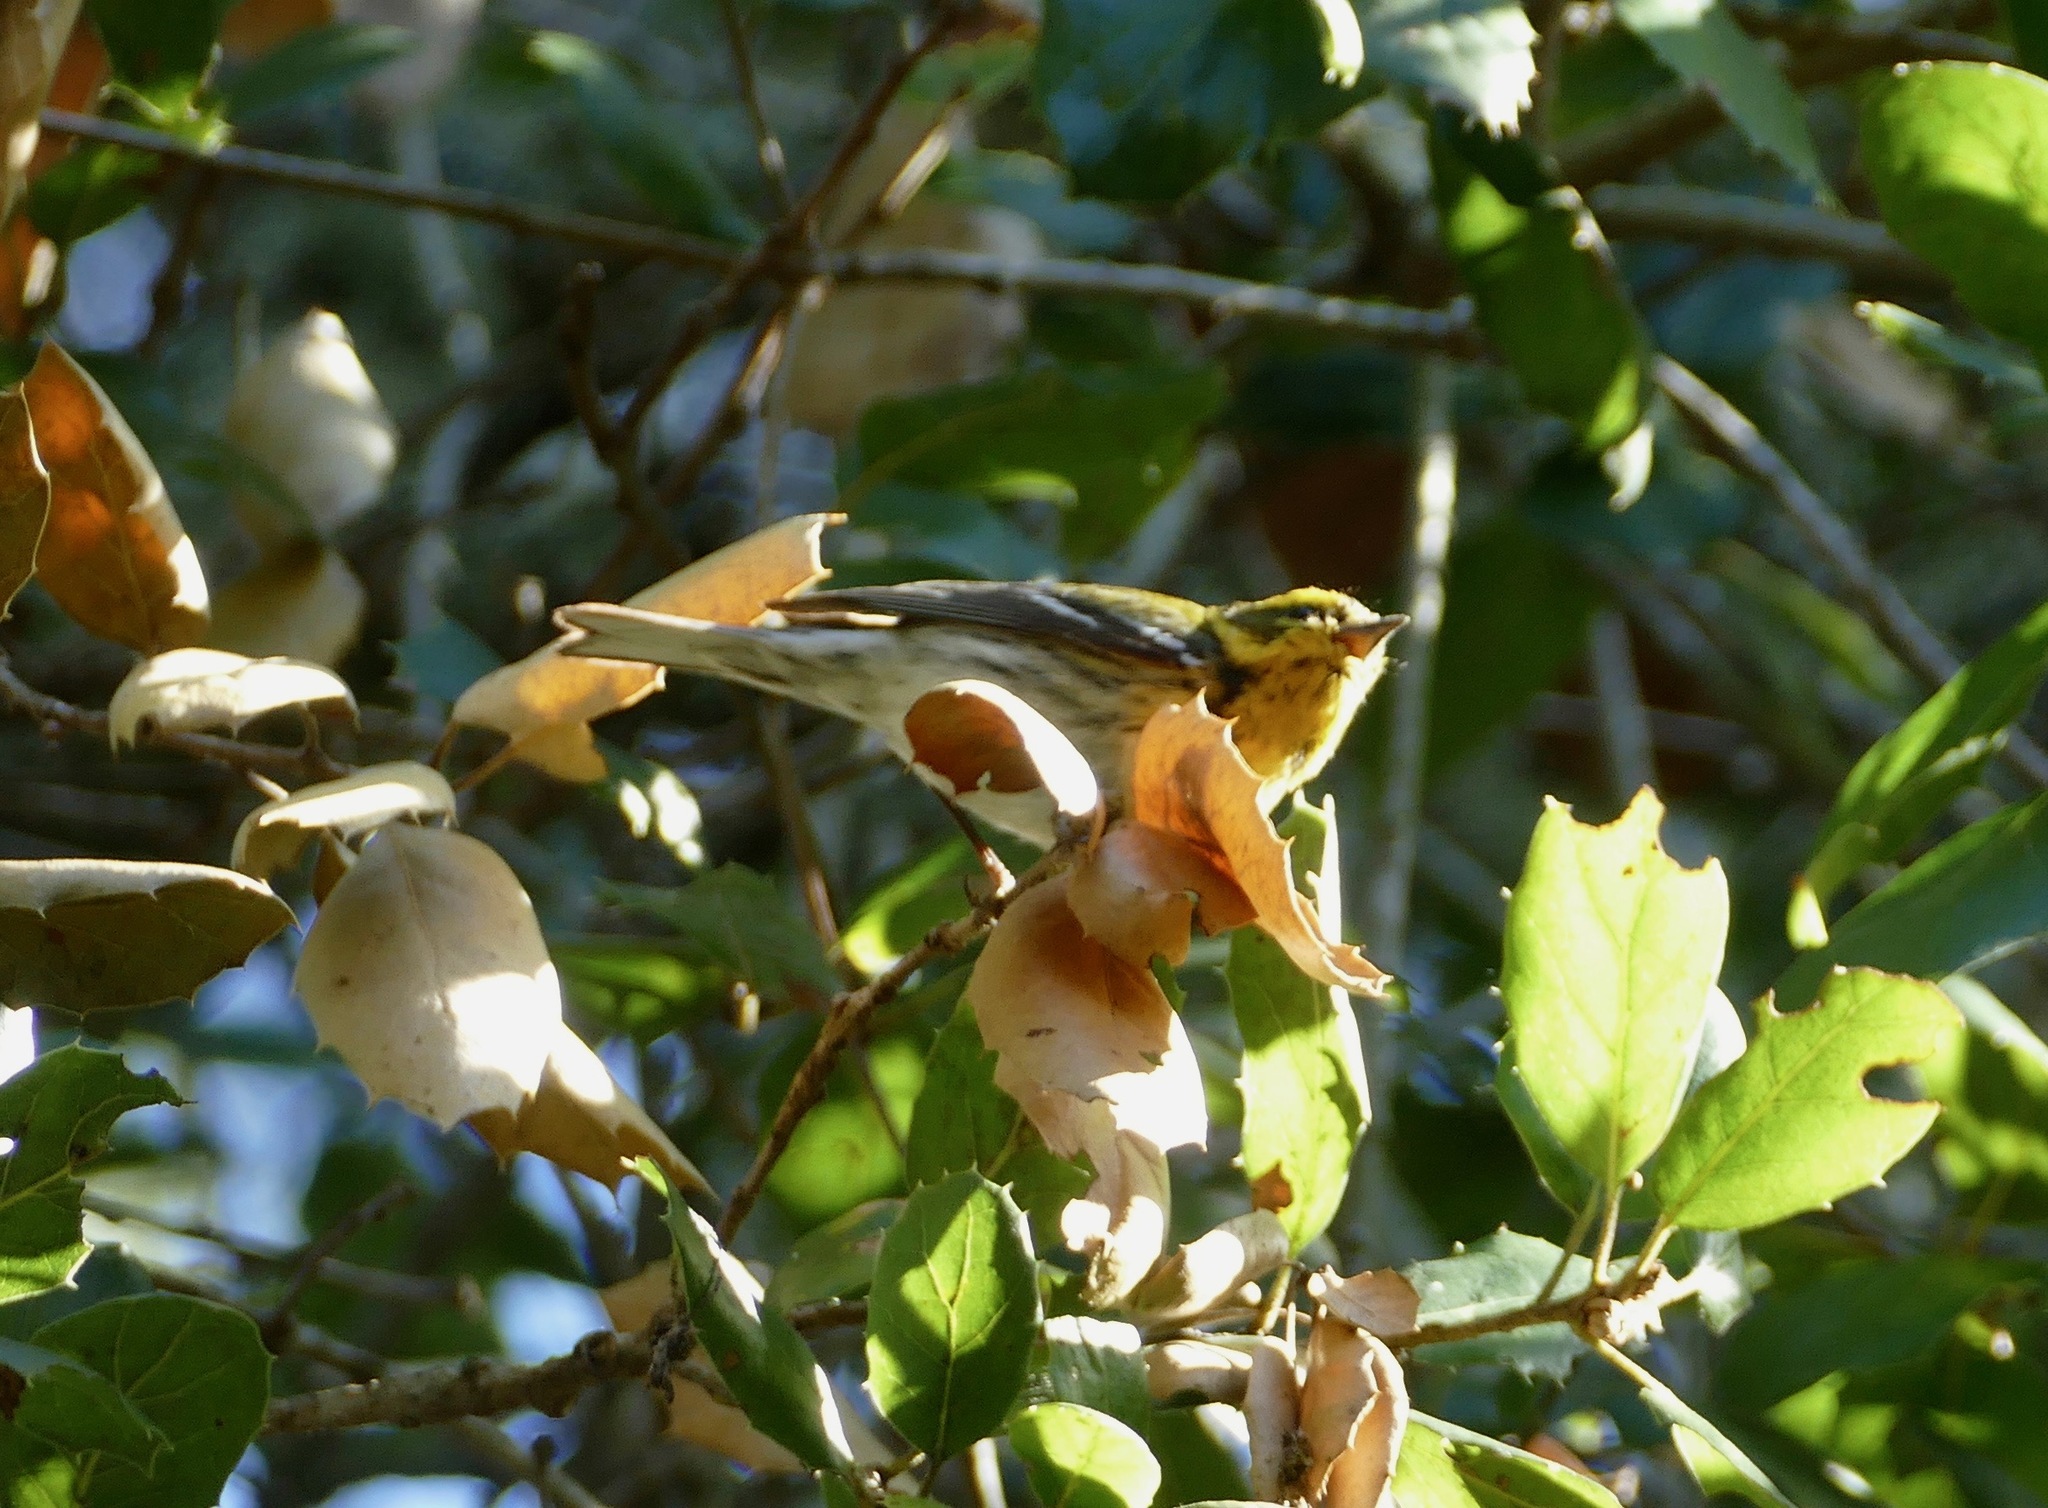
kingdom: Animalia
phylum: Chordata
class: Aves
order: Passeriformes
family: Parulidae
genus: Setophaga
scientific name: Setophaga townsendi
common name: Townsend's warbler
